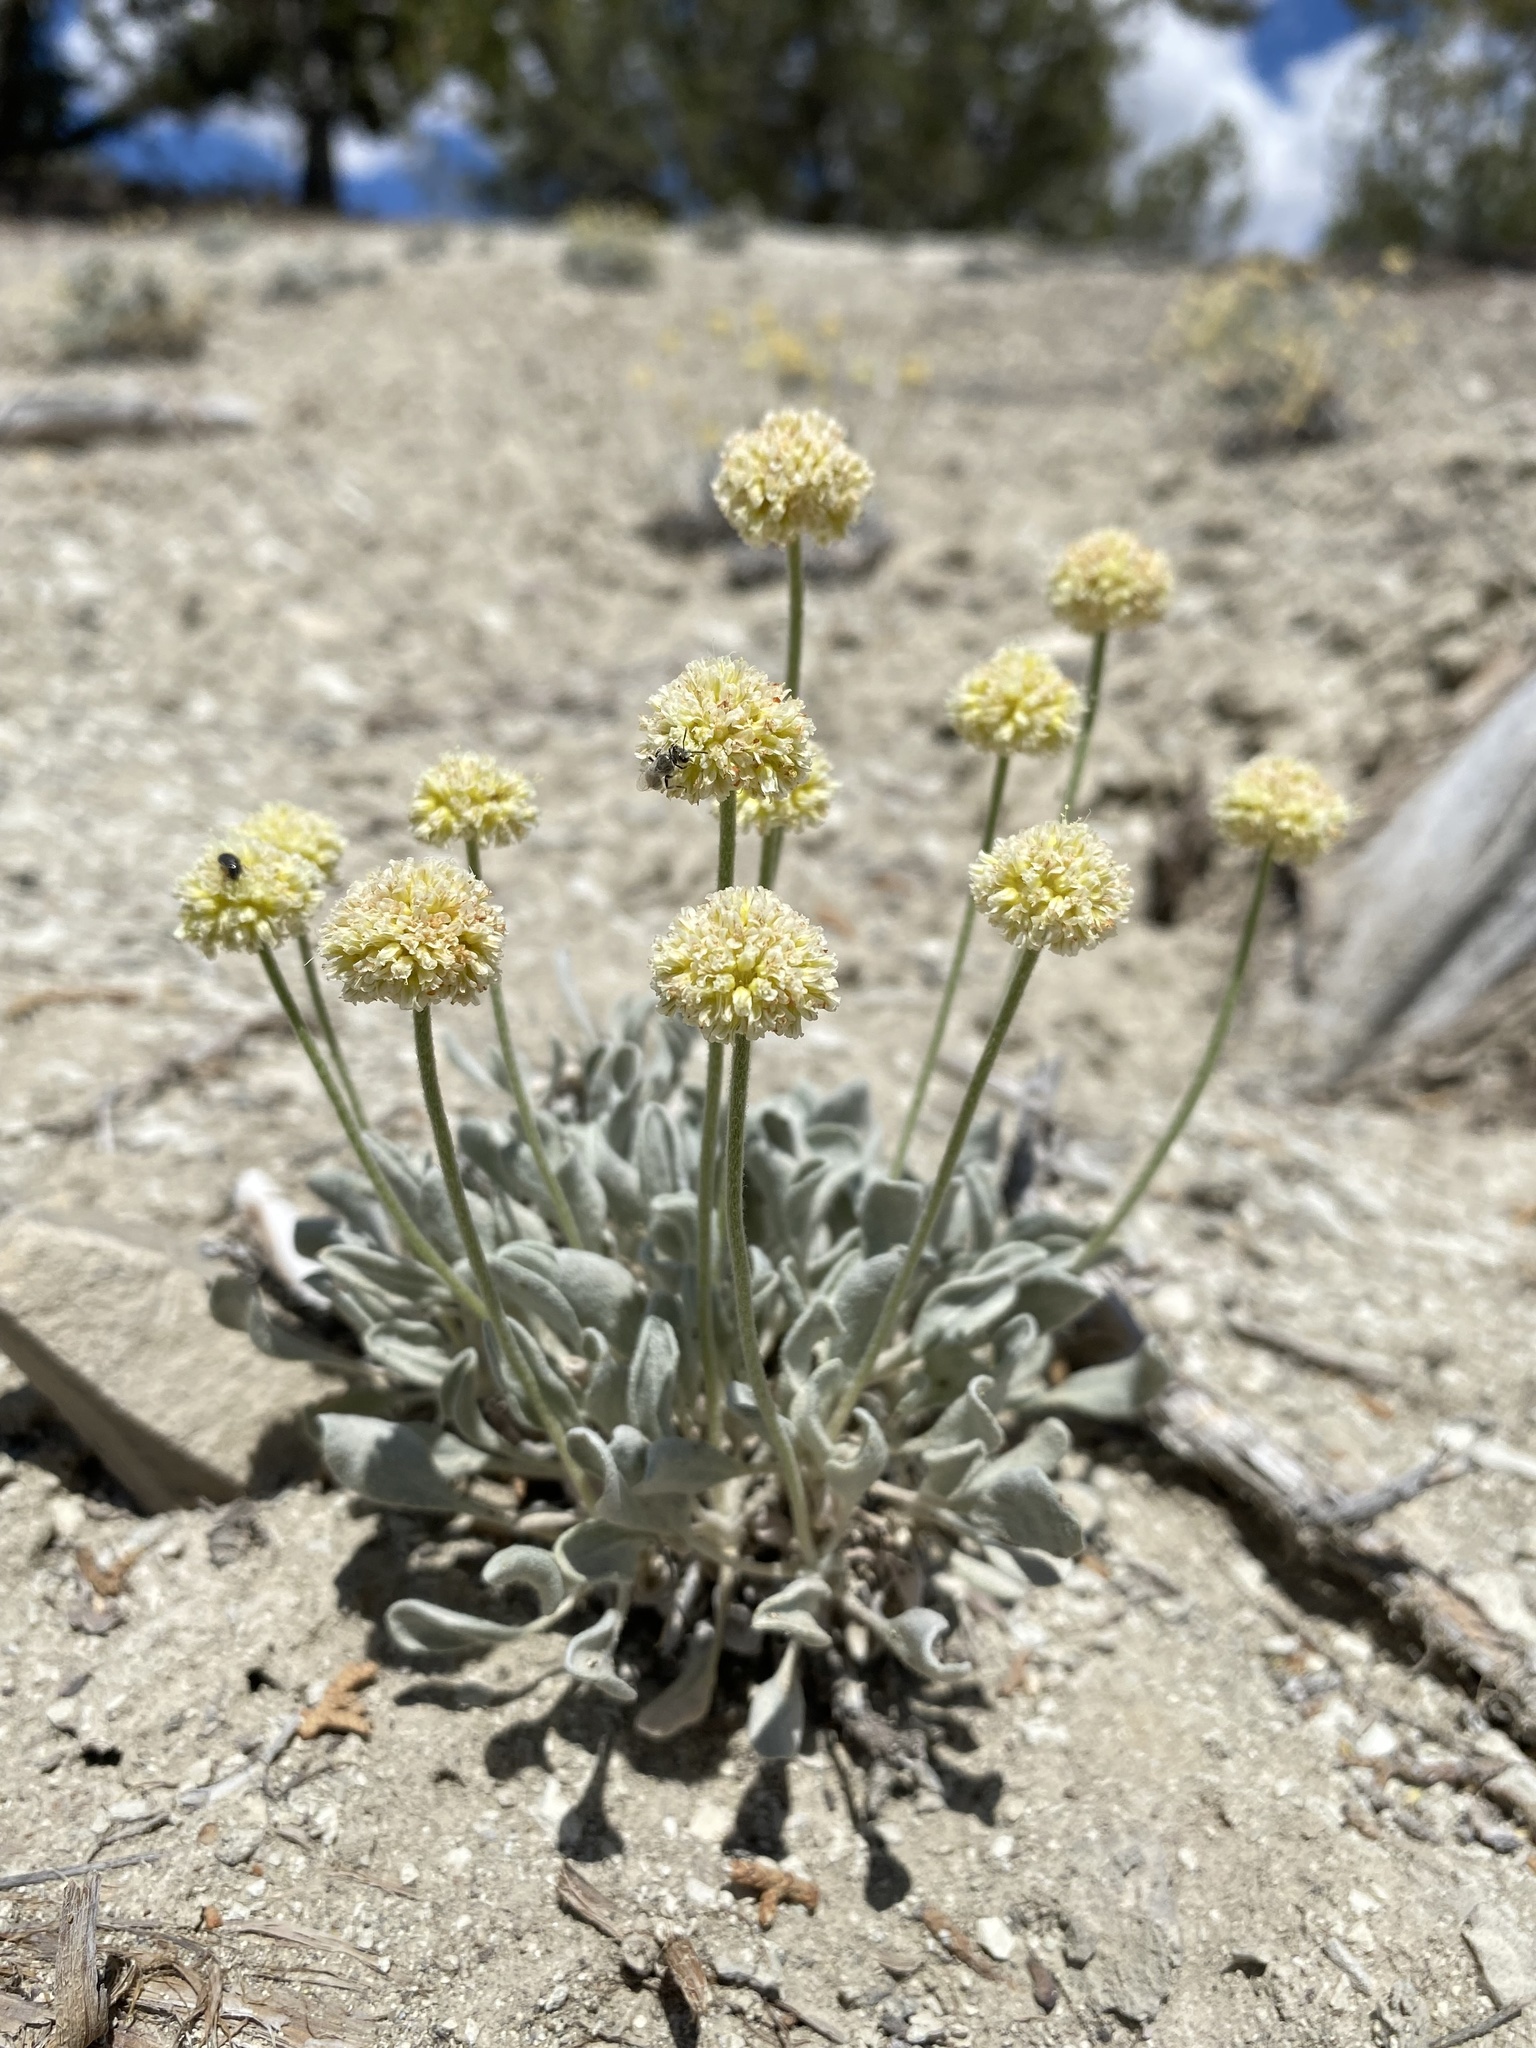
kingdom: Plantae
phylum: Tracheophyta
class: Magnoliopsida
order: Caryophyllales
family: Polygonaceae
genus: Eriogonum
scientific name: Eriogonum anemophilum
